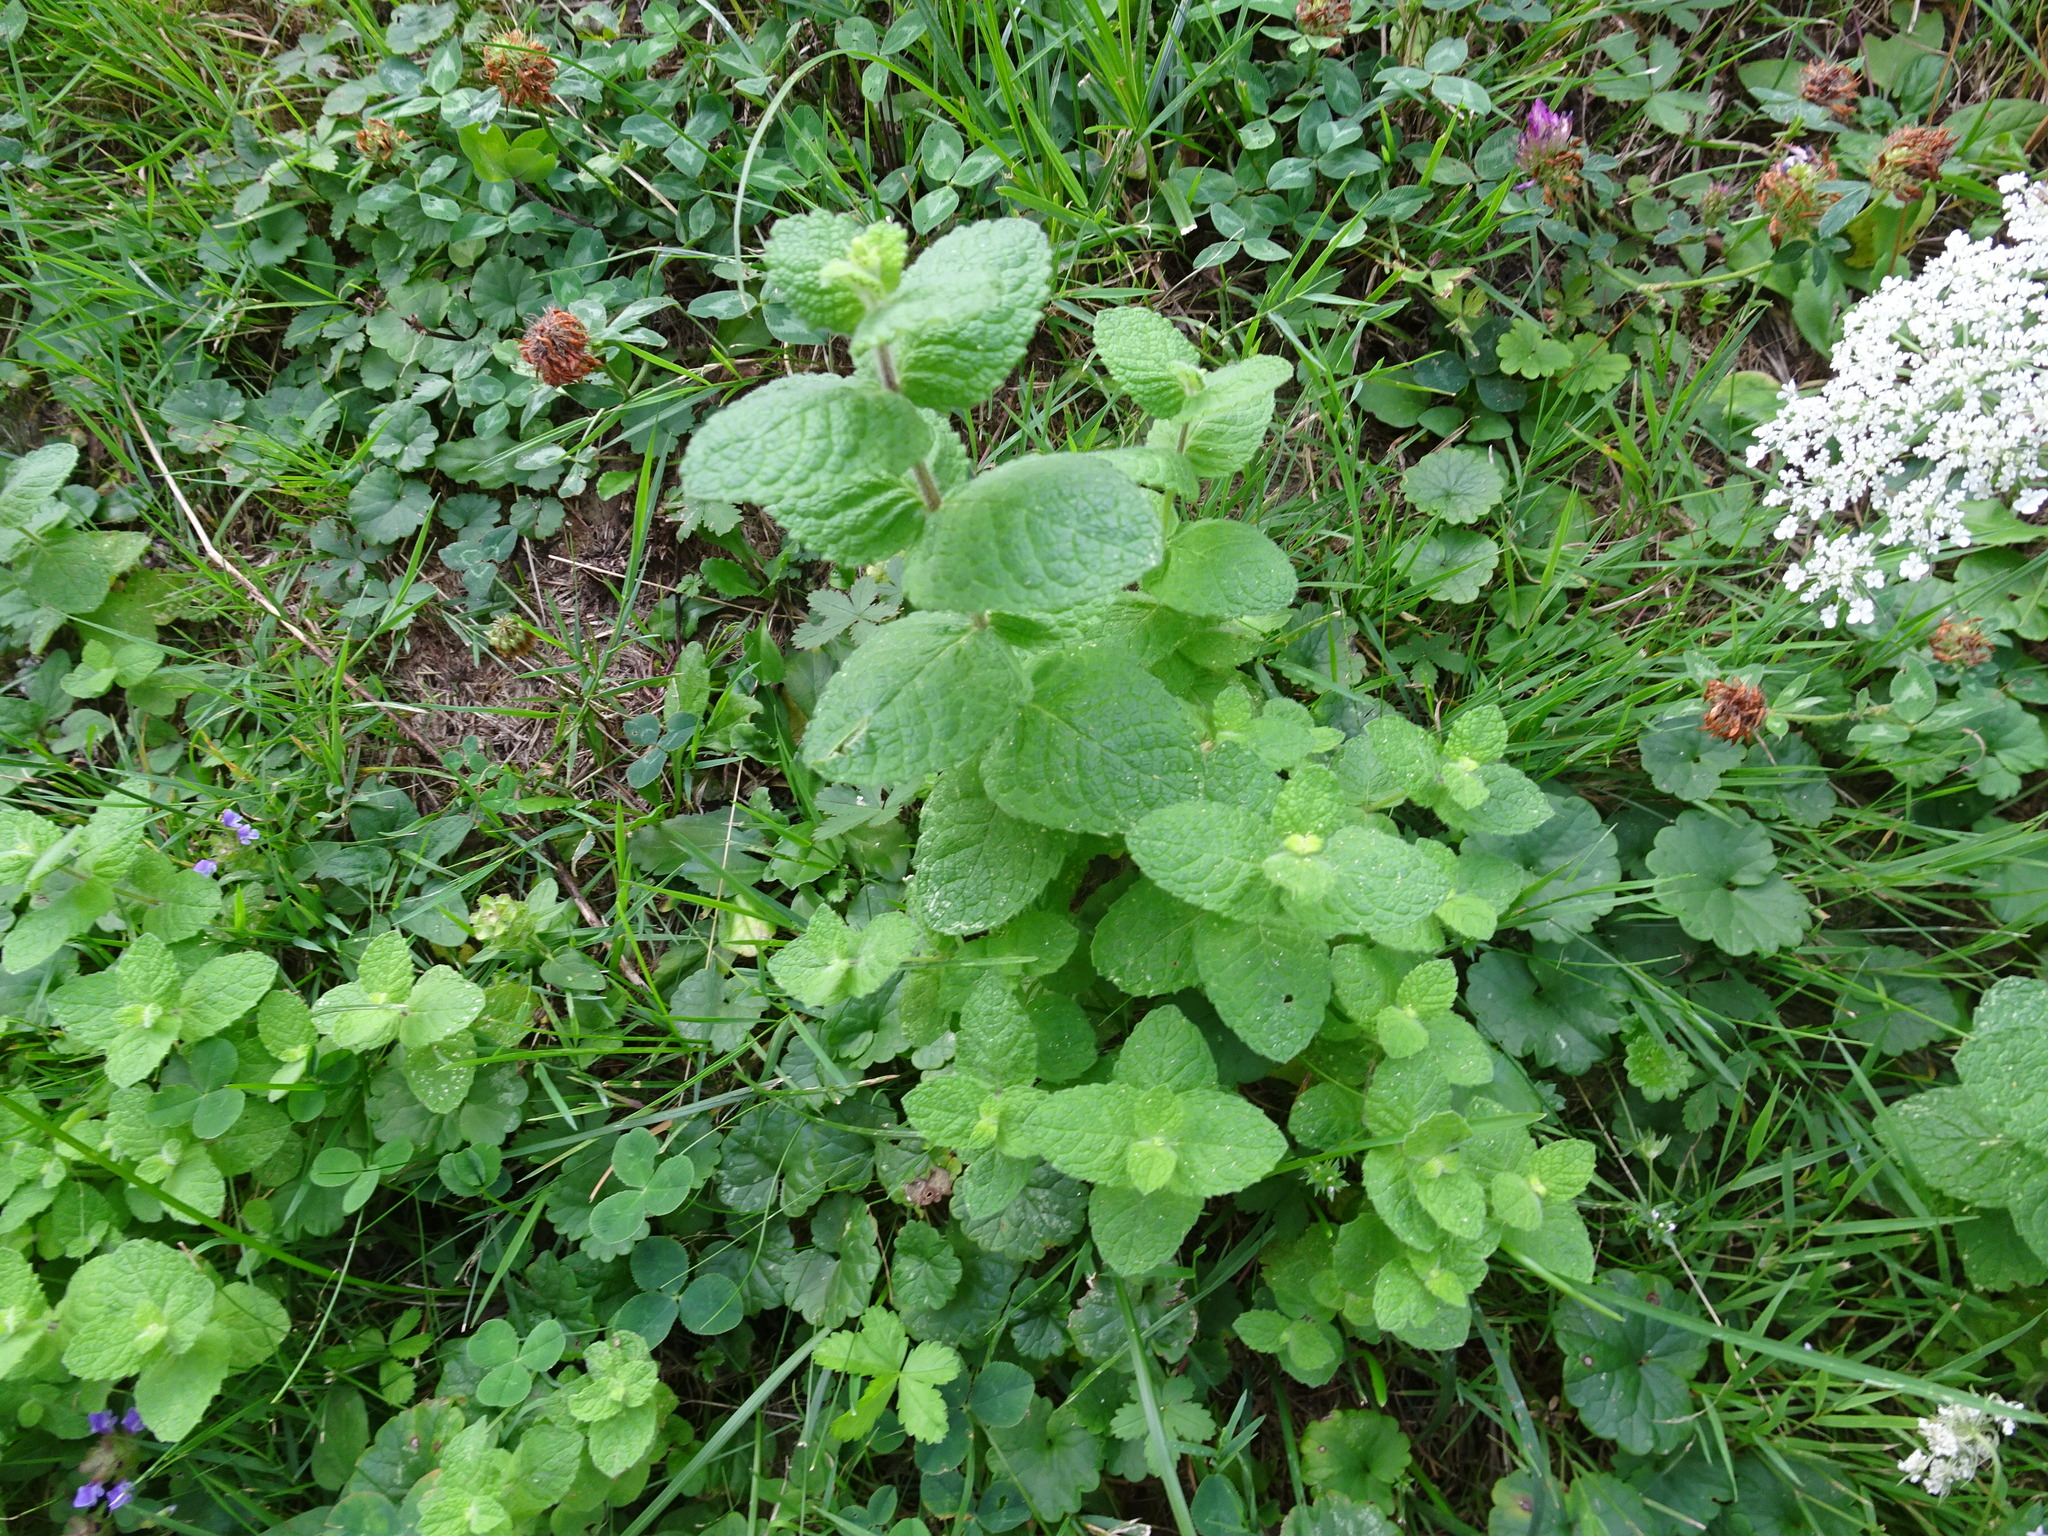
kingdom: Plantae
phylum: Tracheophyta
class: Magnoliopsida
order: Lamiales
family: Lamiaceae
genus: Mentha
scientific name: Mentha suaveolens
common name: Apple mint
